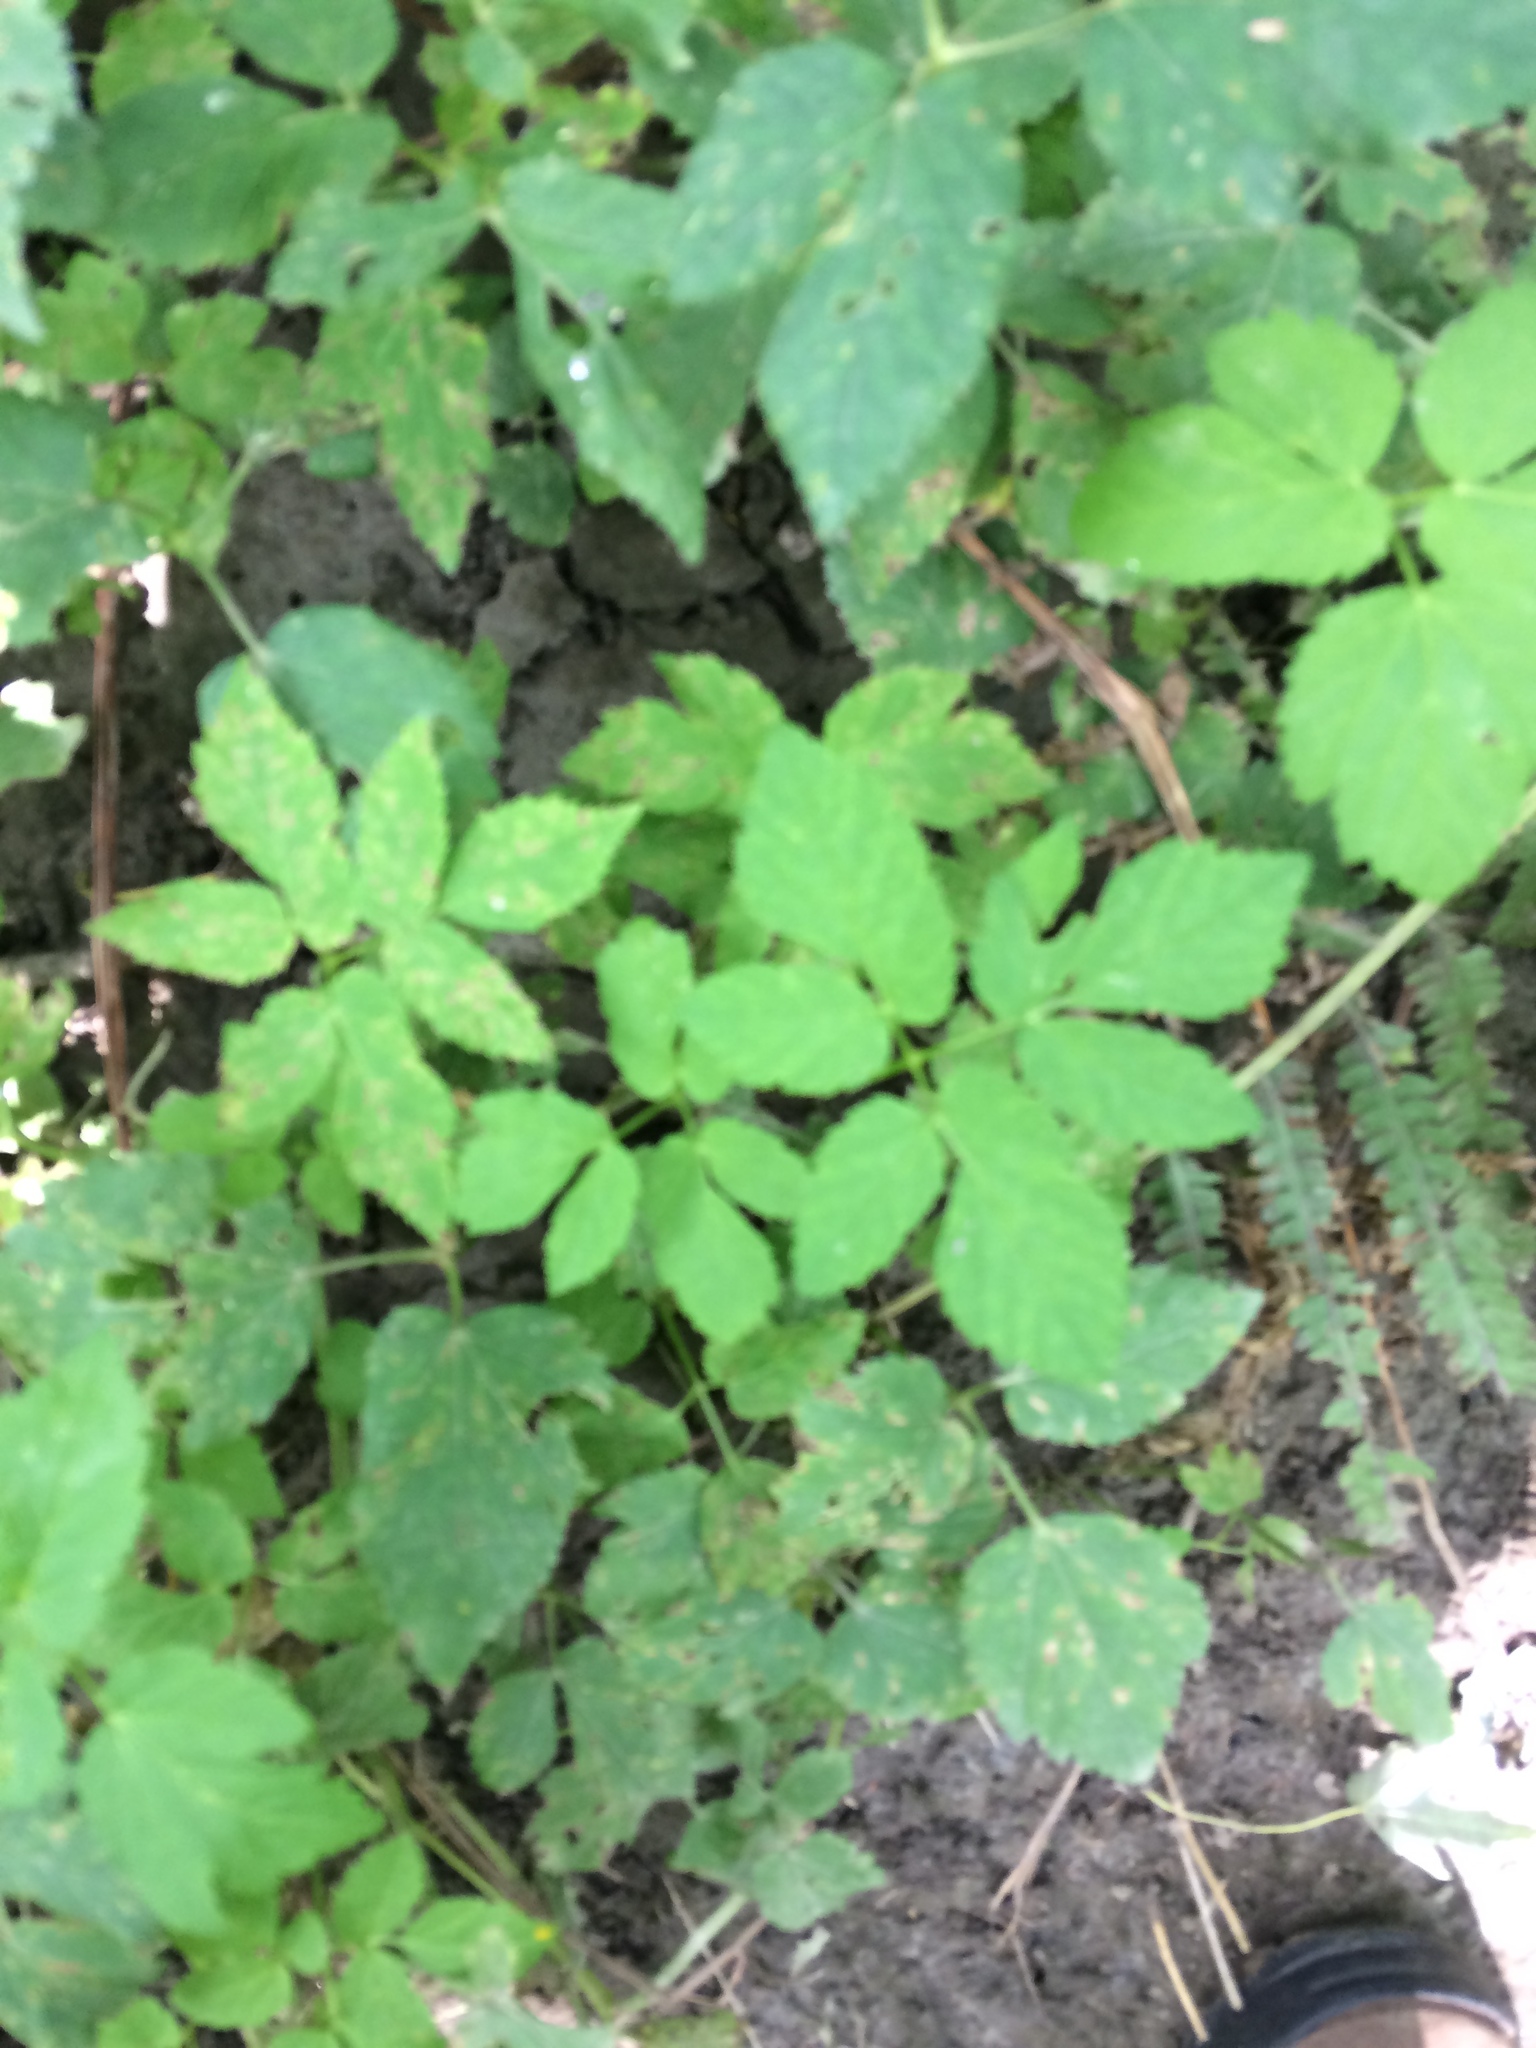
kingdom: Plantae
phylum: Tracheophyta
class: Magnoliopsida
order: Apiales
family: Apiaceae
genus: Aegopodium
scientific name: Aegopodium podagraria
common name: Ground-elder
